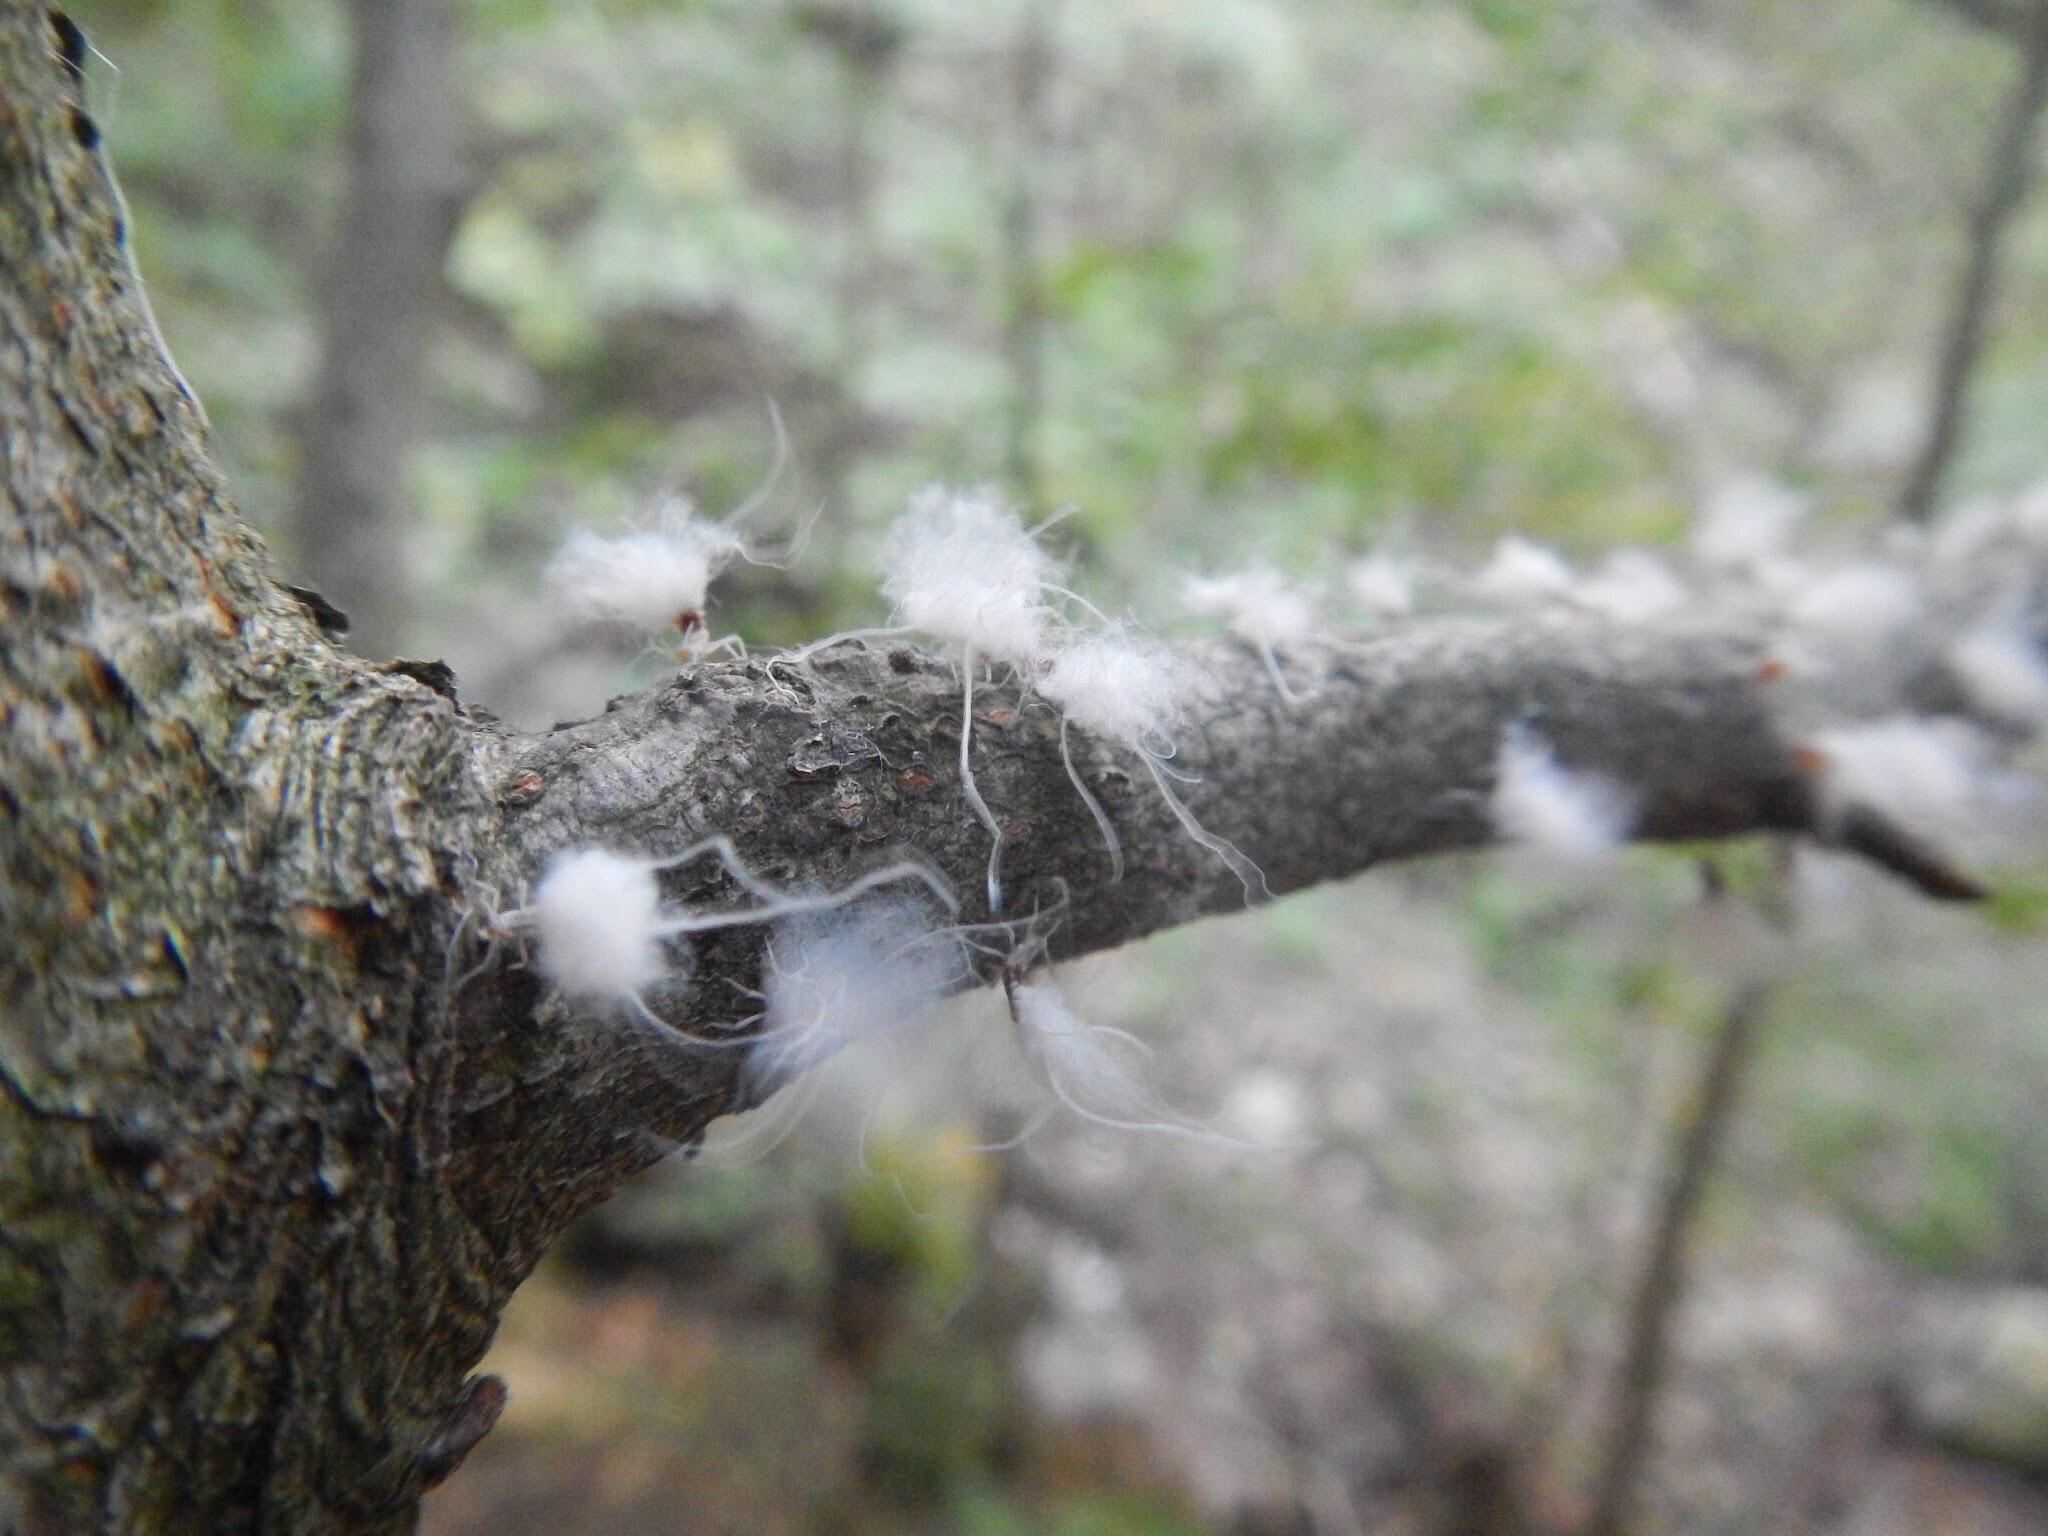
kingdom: Animalia
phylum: Arthropoda
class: Insecta
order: Hemiptera
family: Aphididae
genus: Grylloprociphilus
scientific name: Grylloprociphilus imbricator
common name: Beech blight aphid
